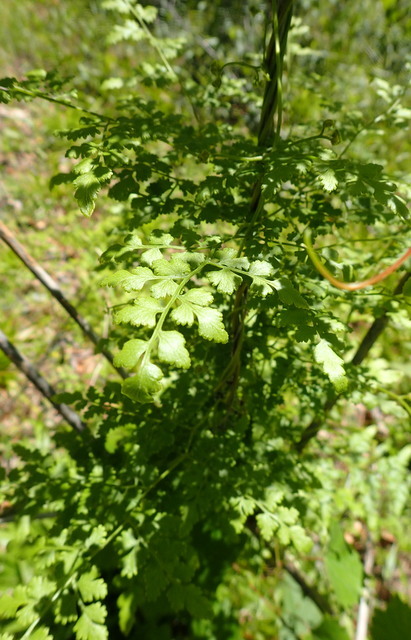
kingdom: Plantae
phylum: Tracheophyta
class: Polypodiopsida
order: Schizaeales
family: Lygodiaceae
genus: Lygodium
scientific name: Lygodium japonicum
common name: Japanese climbing fern
